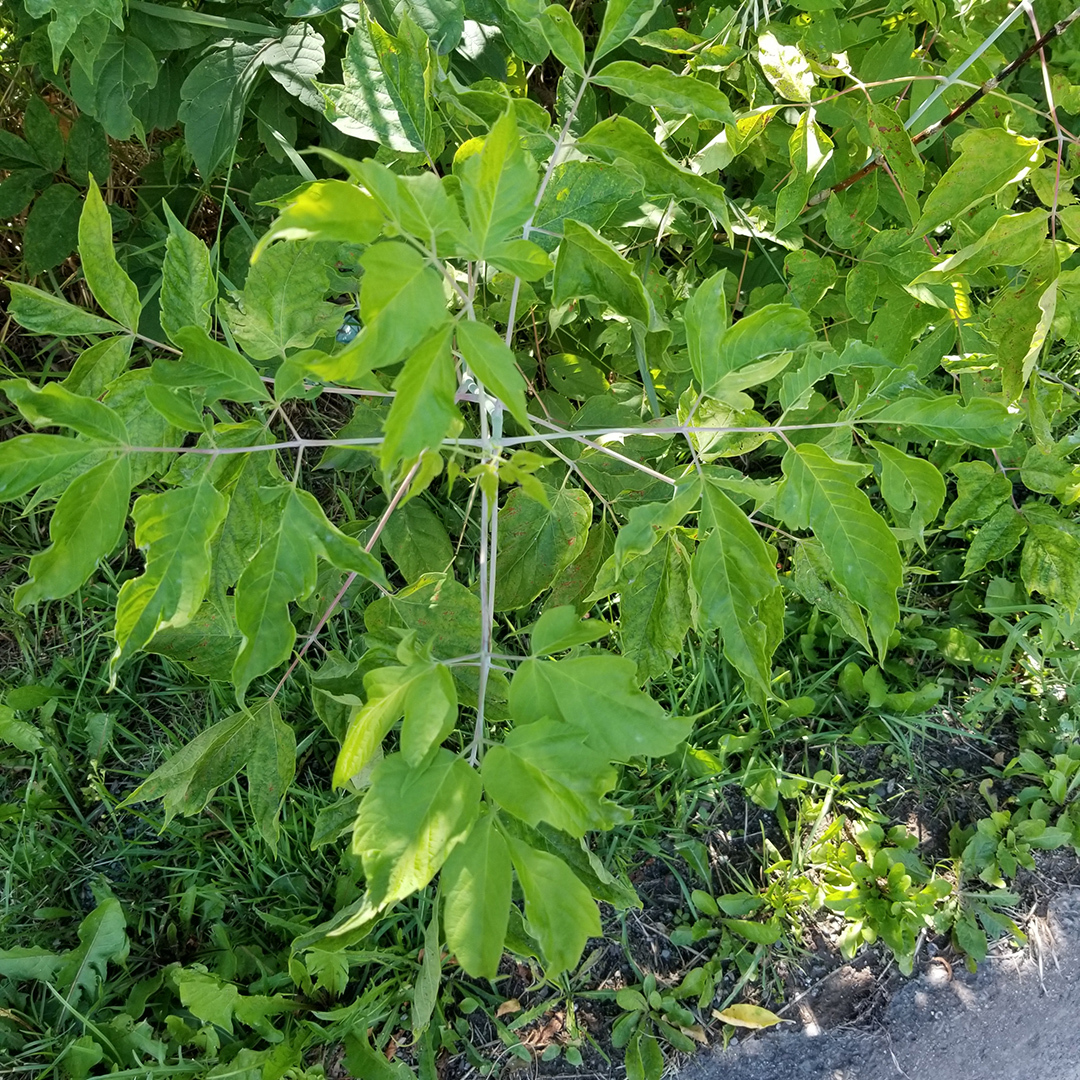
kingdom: Plantae
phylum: Tracheophyta
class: Magnoliopsida
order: Sapindales
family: Sapindaceae
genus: Acer
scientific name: Acer negundo
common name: Ashleaf maple
